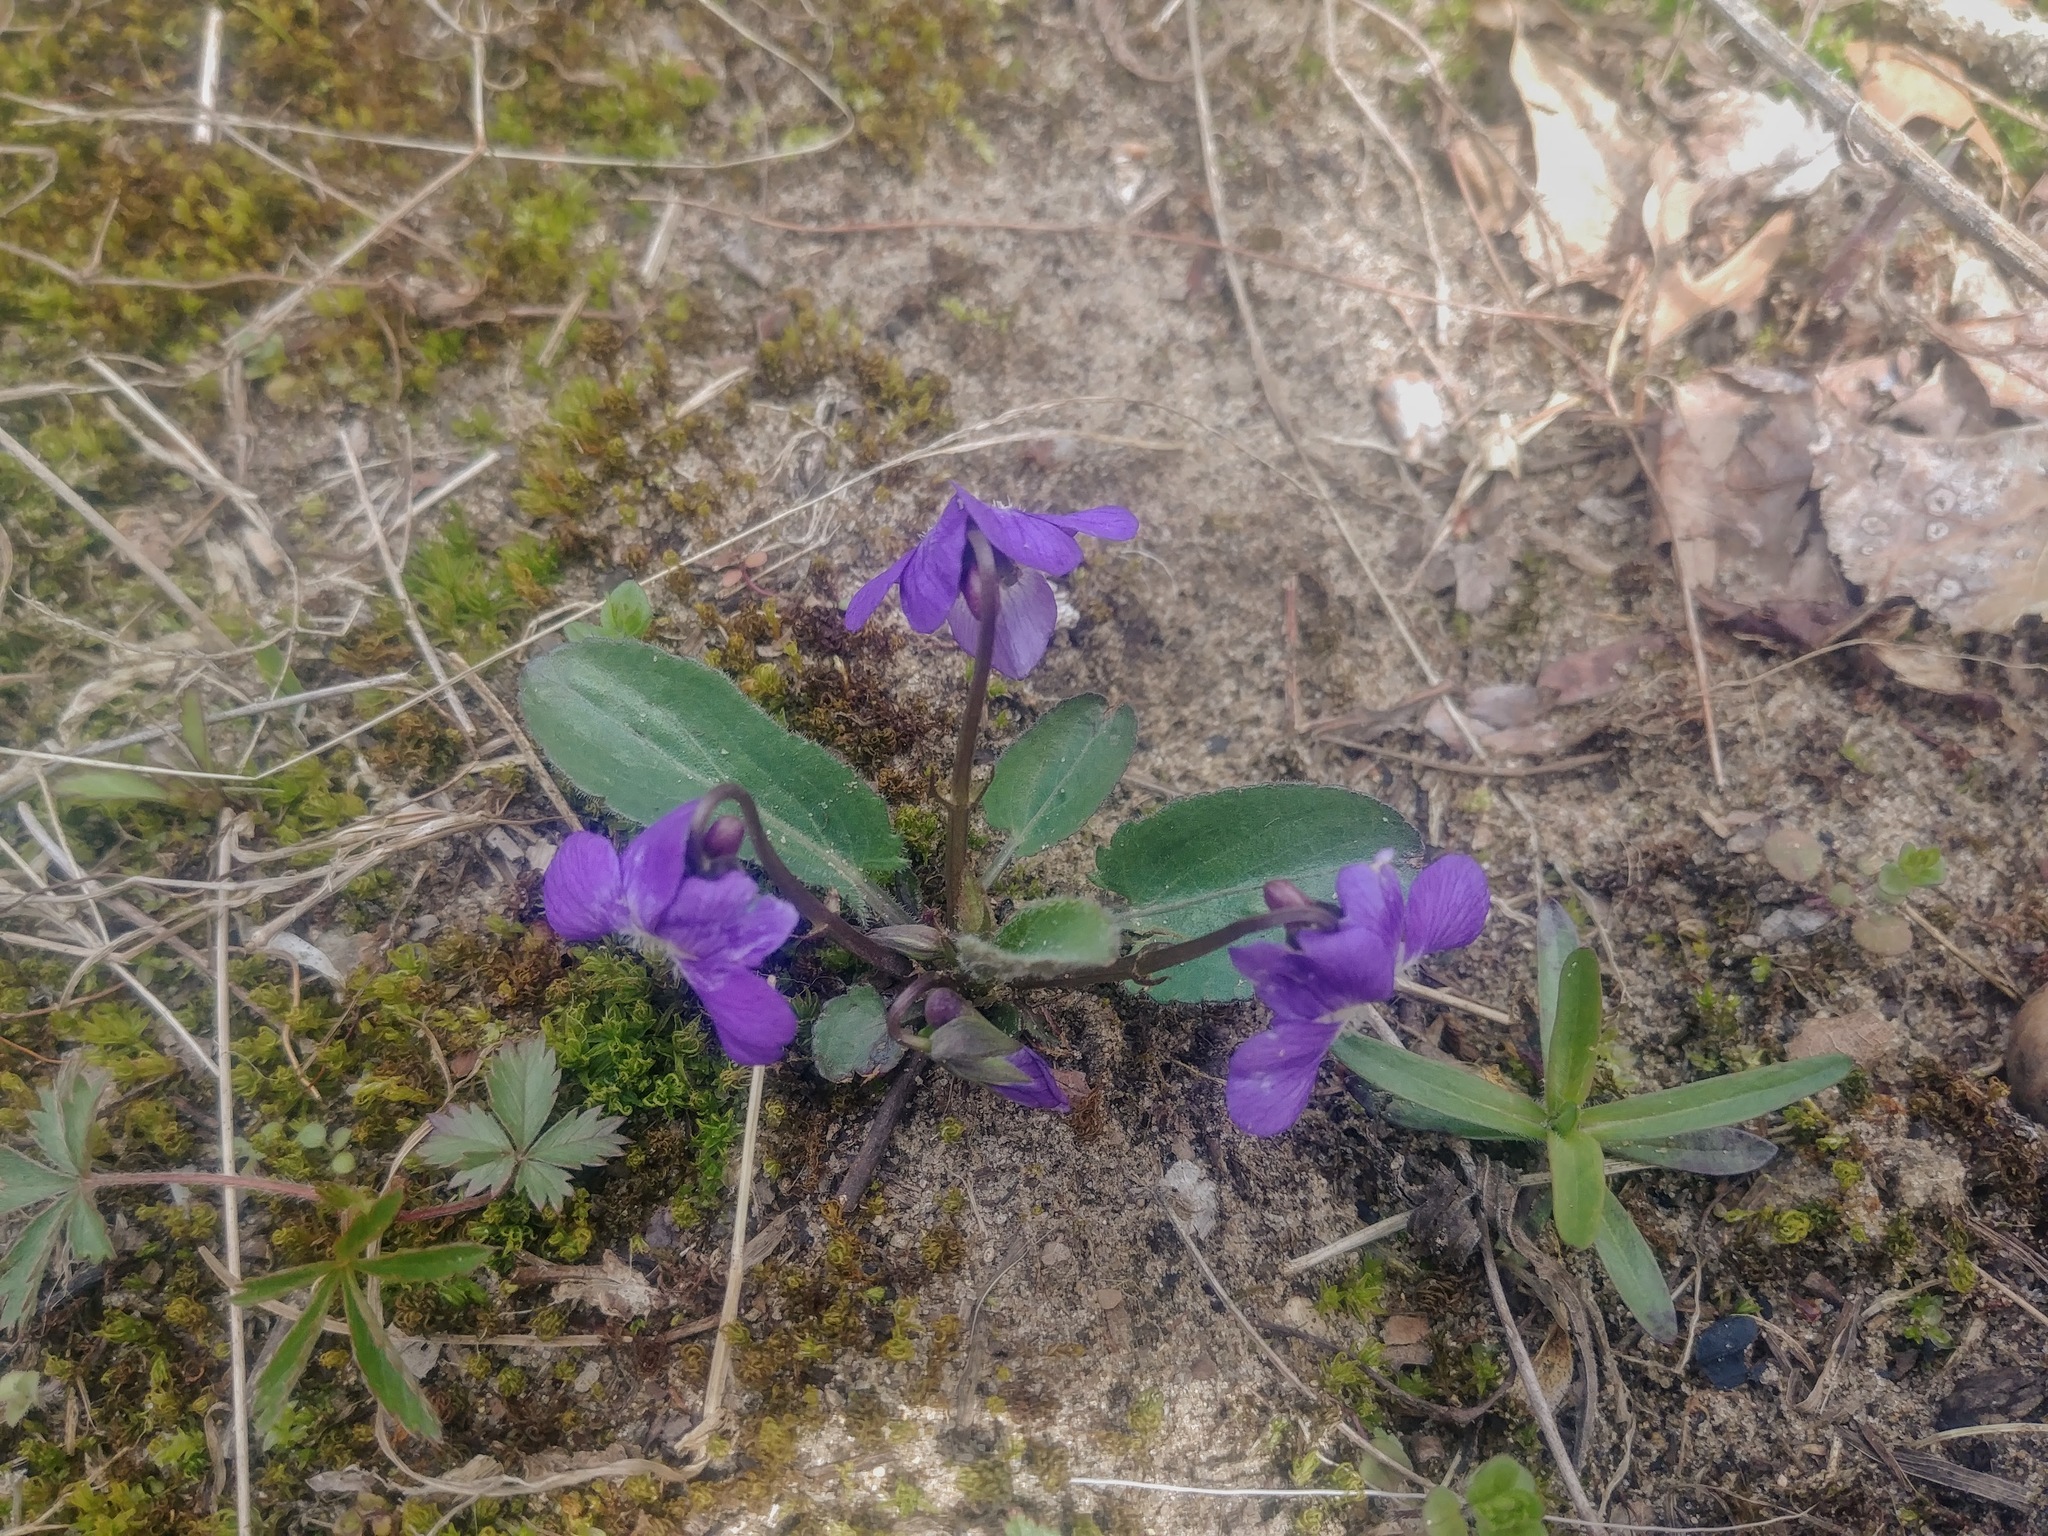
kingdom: Plantae
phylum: Tracheophyta
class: Magnoliopsida
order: Malpighiales
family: Violaceae
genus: Viola
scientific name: Viola sagittata
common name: Arrowhead violet
